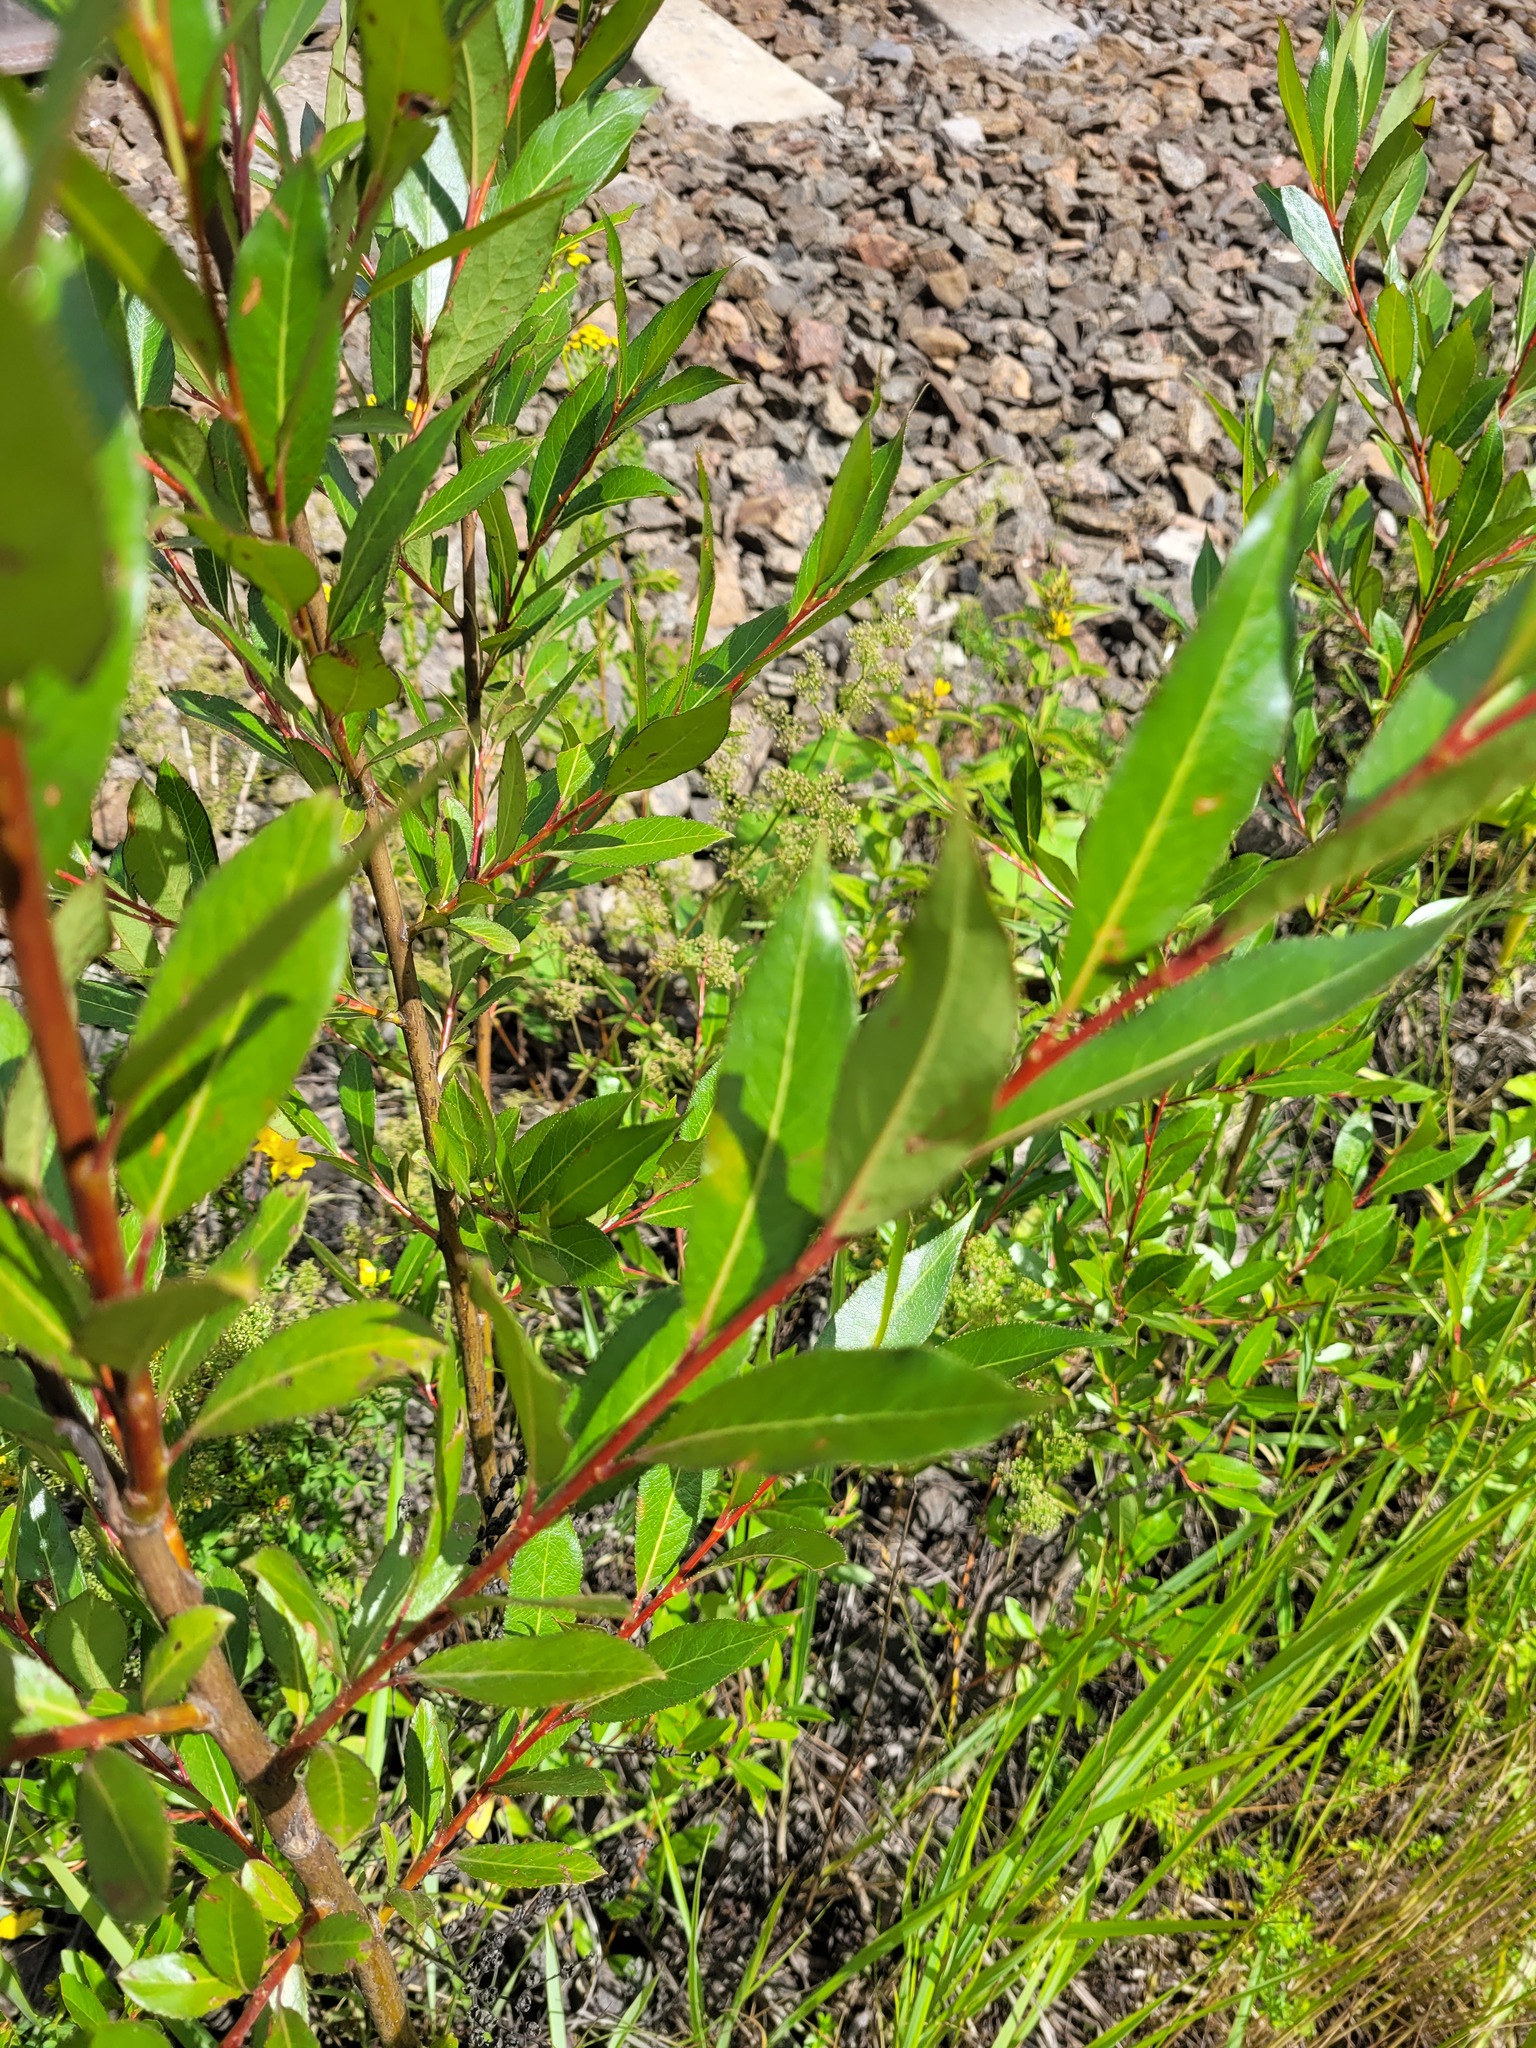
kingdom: Plantae
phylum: Tracheophyta
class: Magnoliopsida
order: Malpighiales
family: Salicaceae
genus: Salix
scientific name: Salix pentandra
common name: Bay willow
